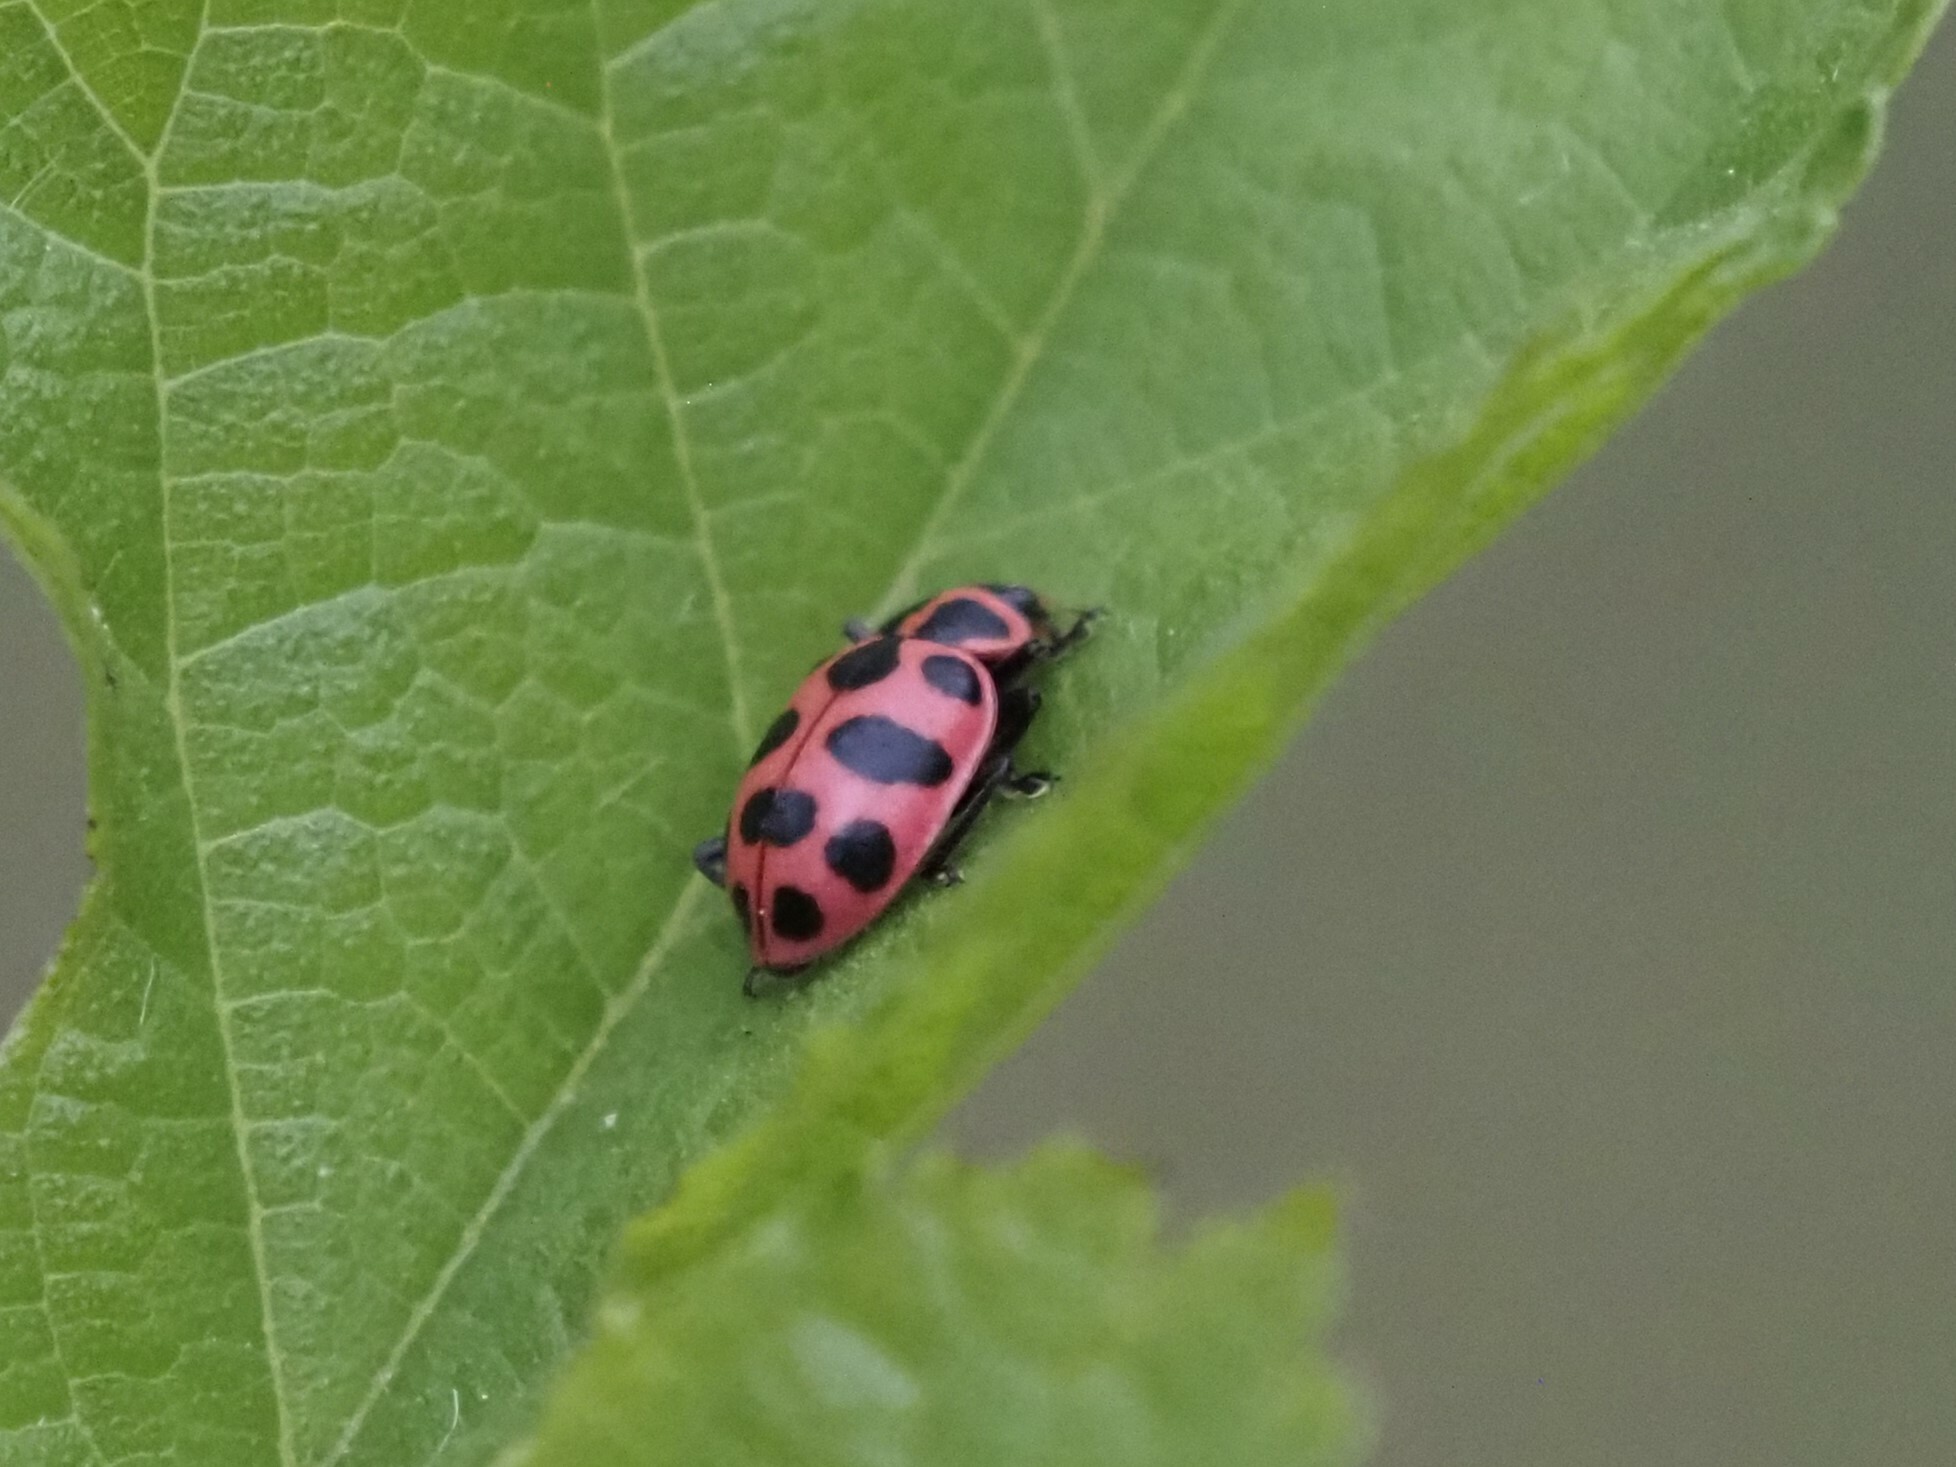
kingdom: Animalia
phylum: Arthropoda
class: Insecta
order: Coleoptera
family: Coccinellidae
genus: Coleomegilla
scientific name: Coleomegilla maculata
